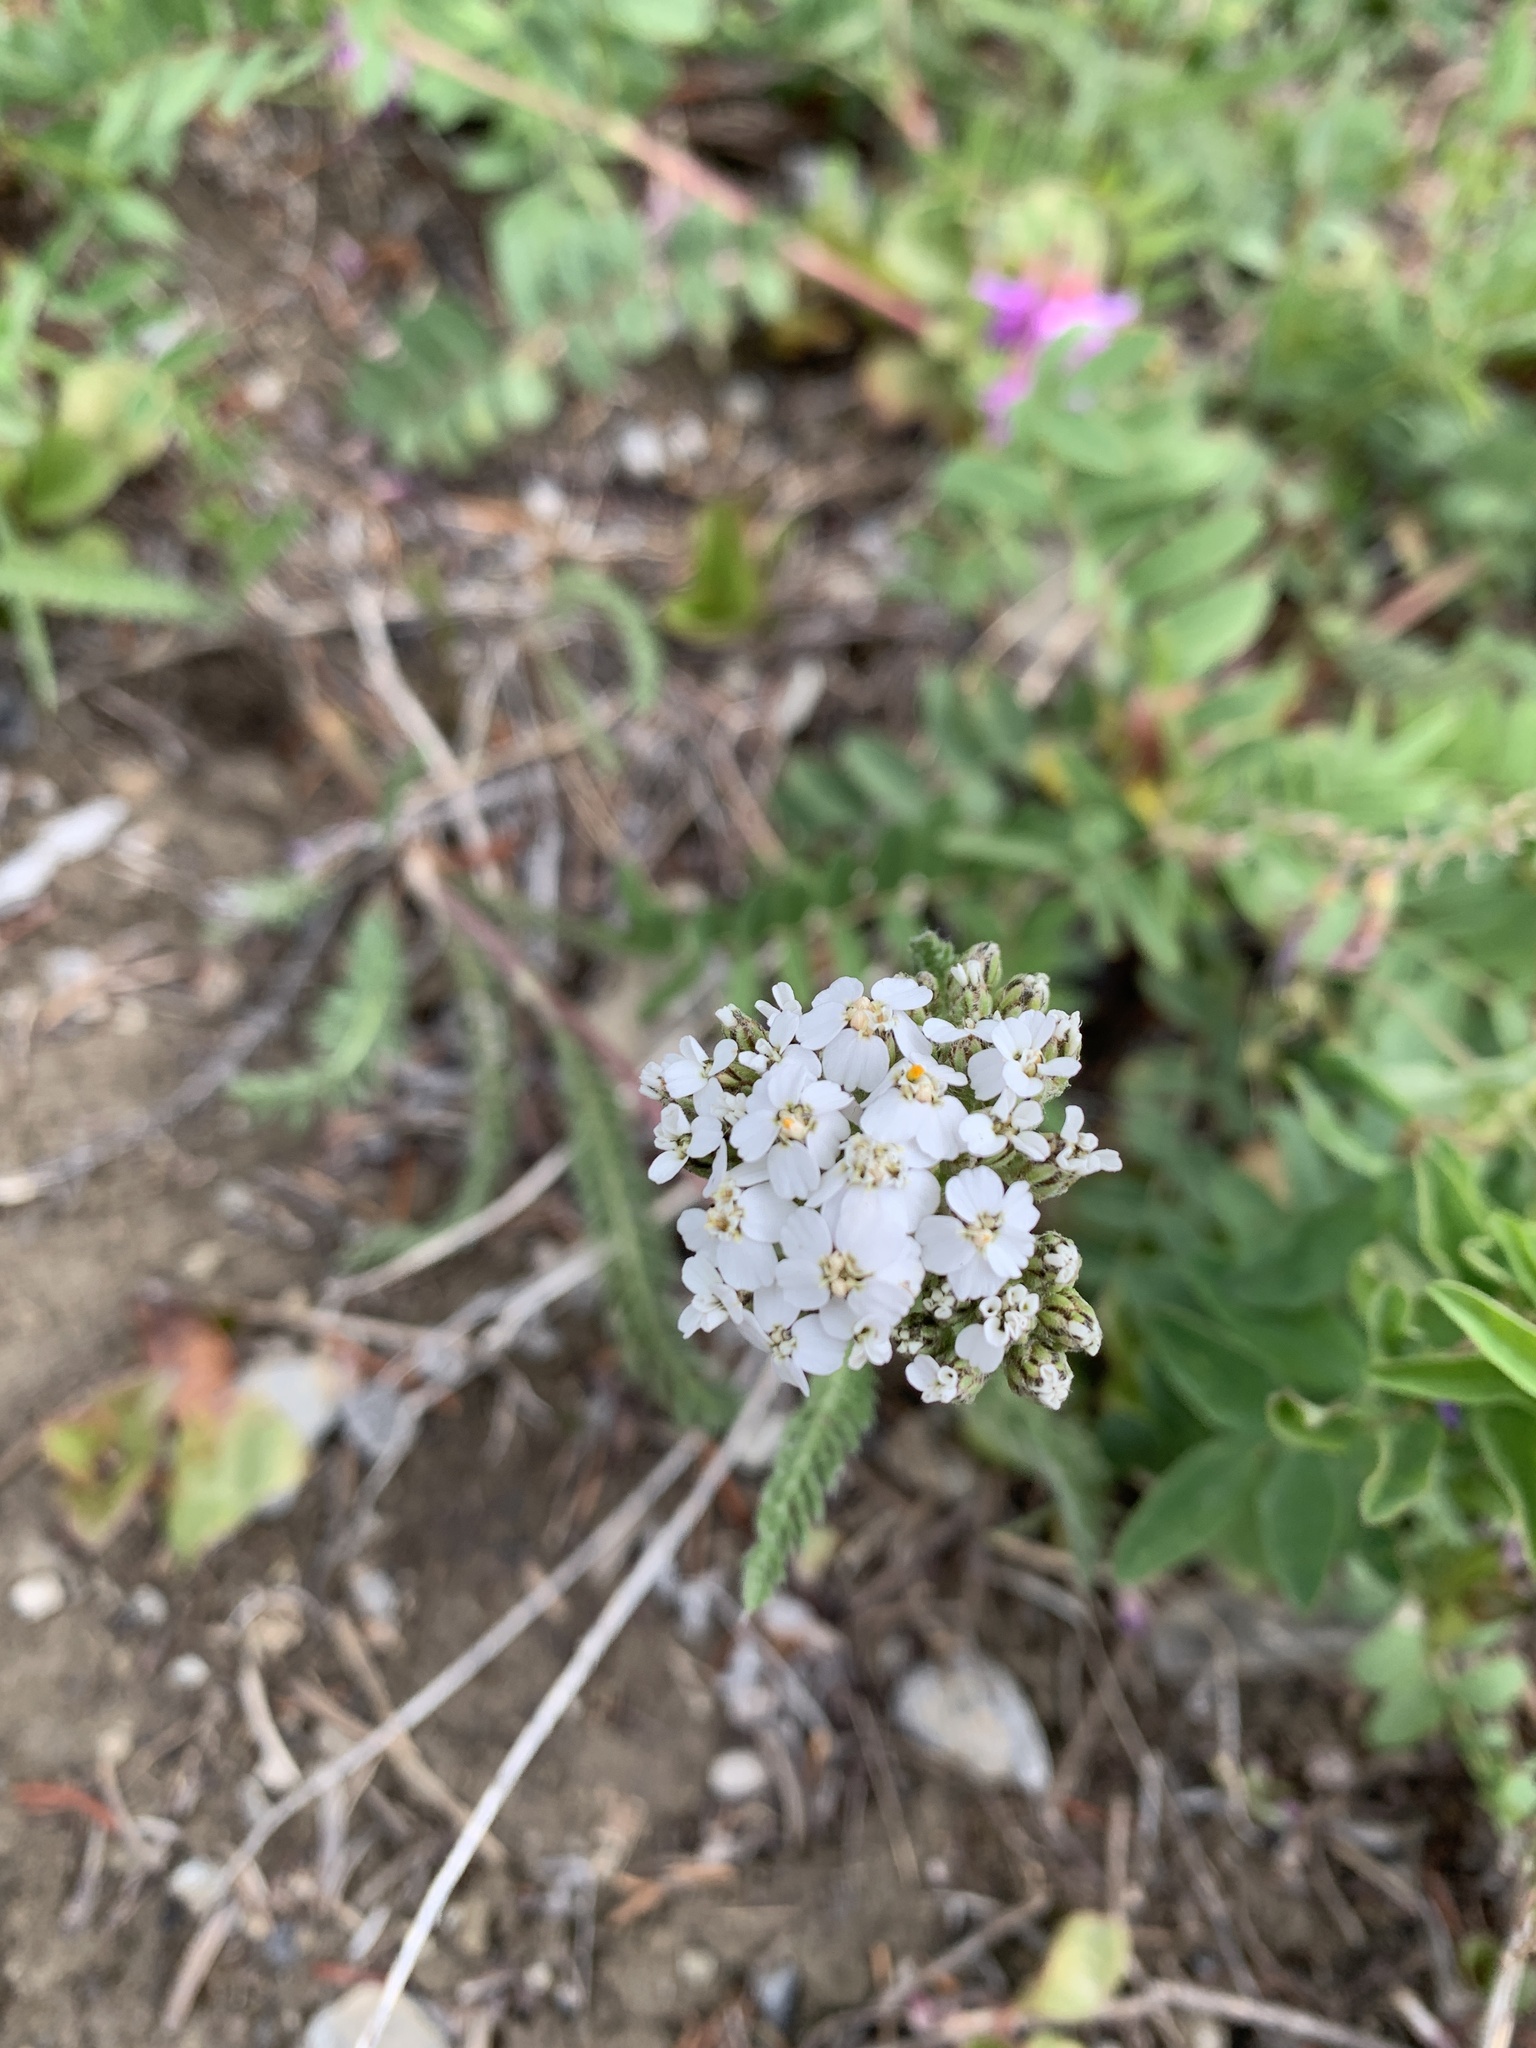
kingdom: Plantae
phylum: Tracheophyta
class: Magnoliopsida
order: Asterales
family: Asteraceae
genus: Achillea
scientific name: Achillea millefolium
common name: Yarrow
